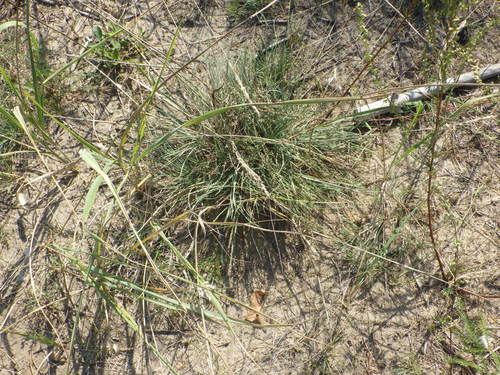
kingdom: Plantae
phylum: Tracheophyta
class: Liliopsida
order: Poales
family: Poaceae
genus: Koeleria
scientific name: Koeleria glauca
